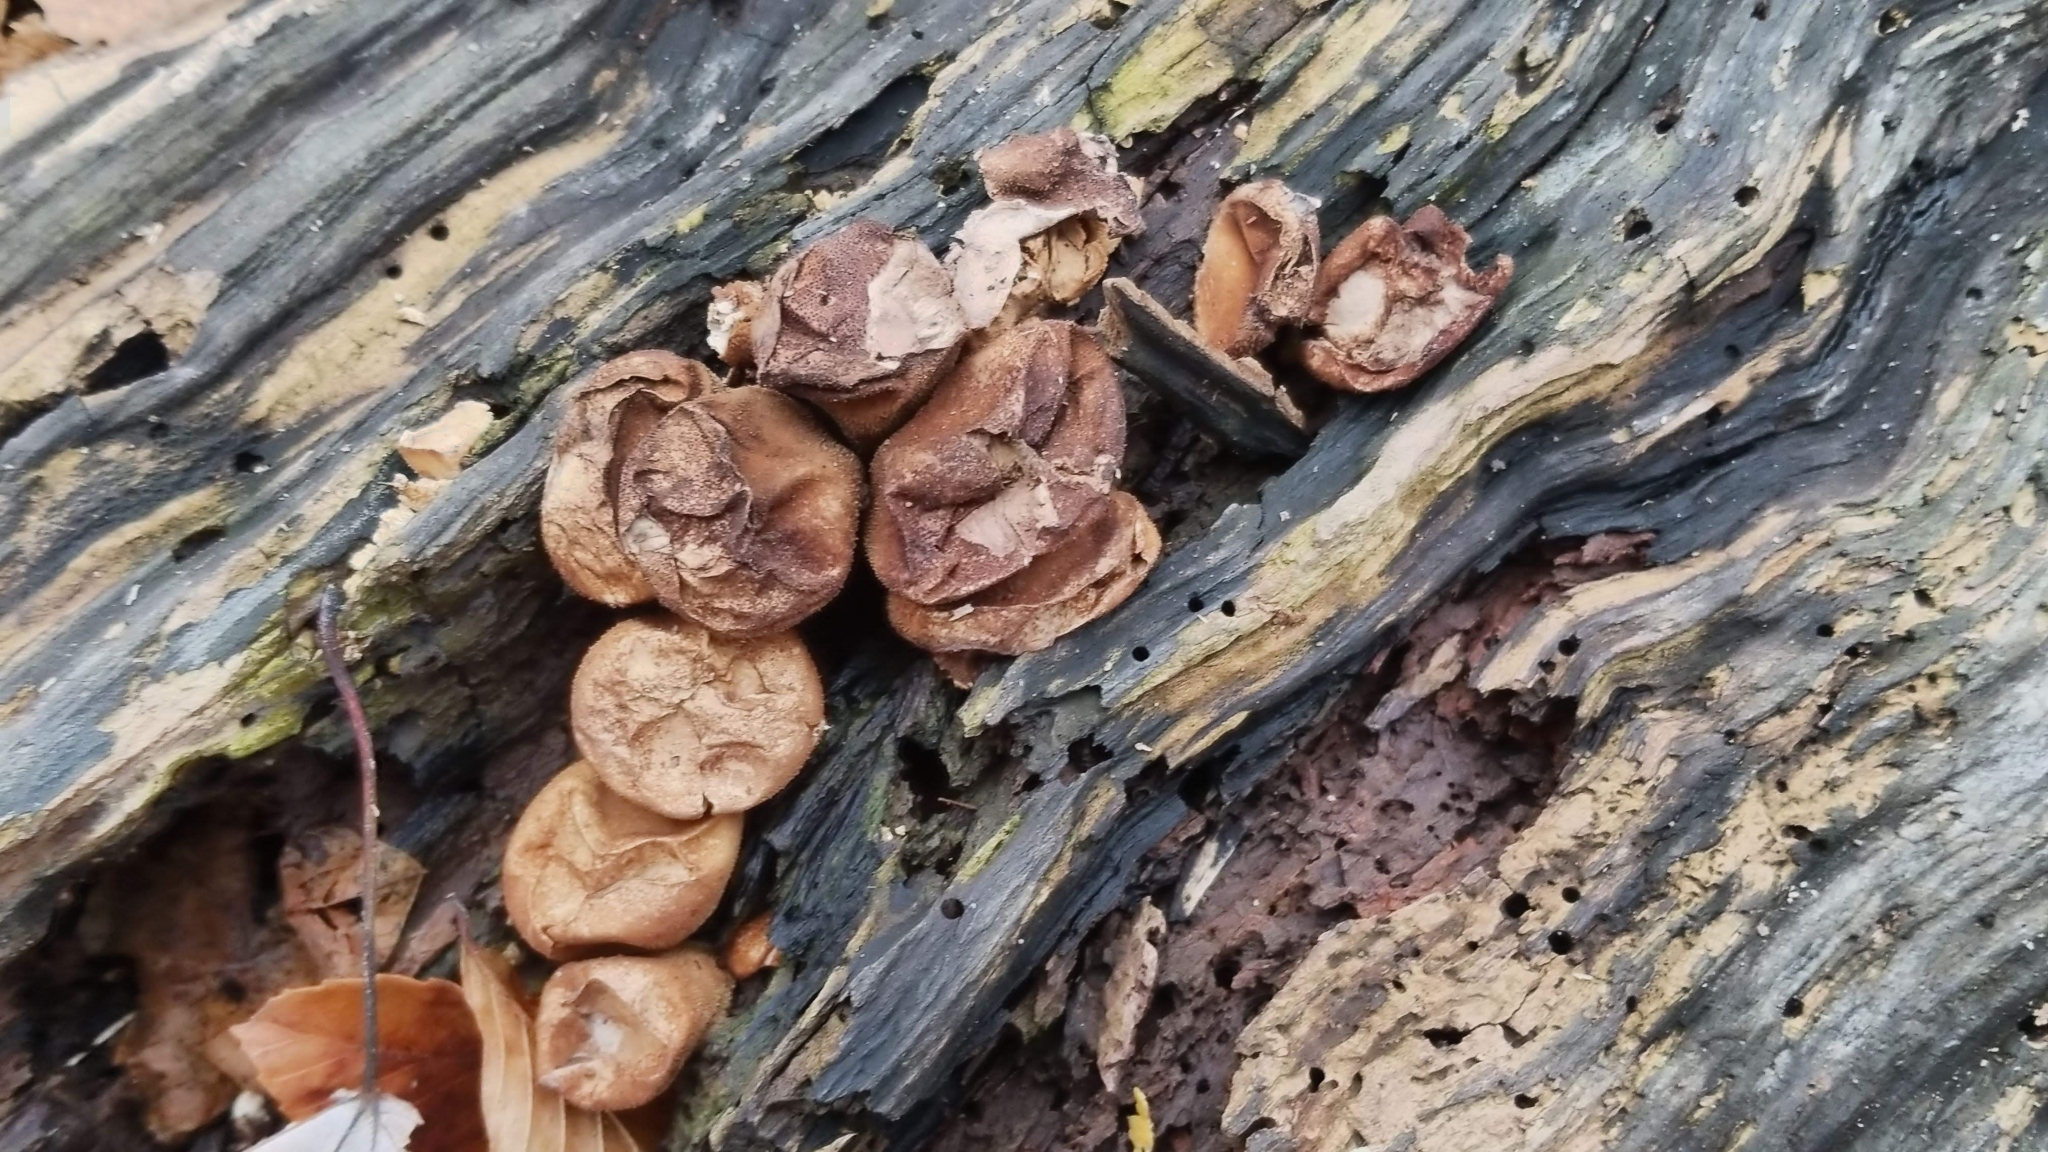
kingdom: Fungi
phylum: Basidiomycota
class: Agaricomycetes
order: Agaricales
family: Lycoperdaceae
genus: Apioperdon
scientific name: Apioperdon pyriforme
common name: Pear-shaped puffball
